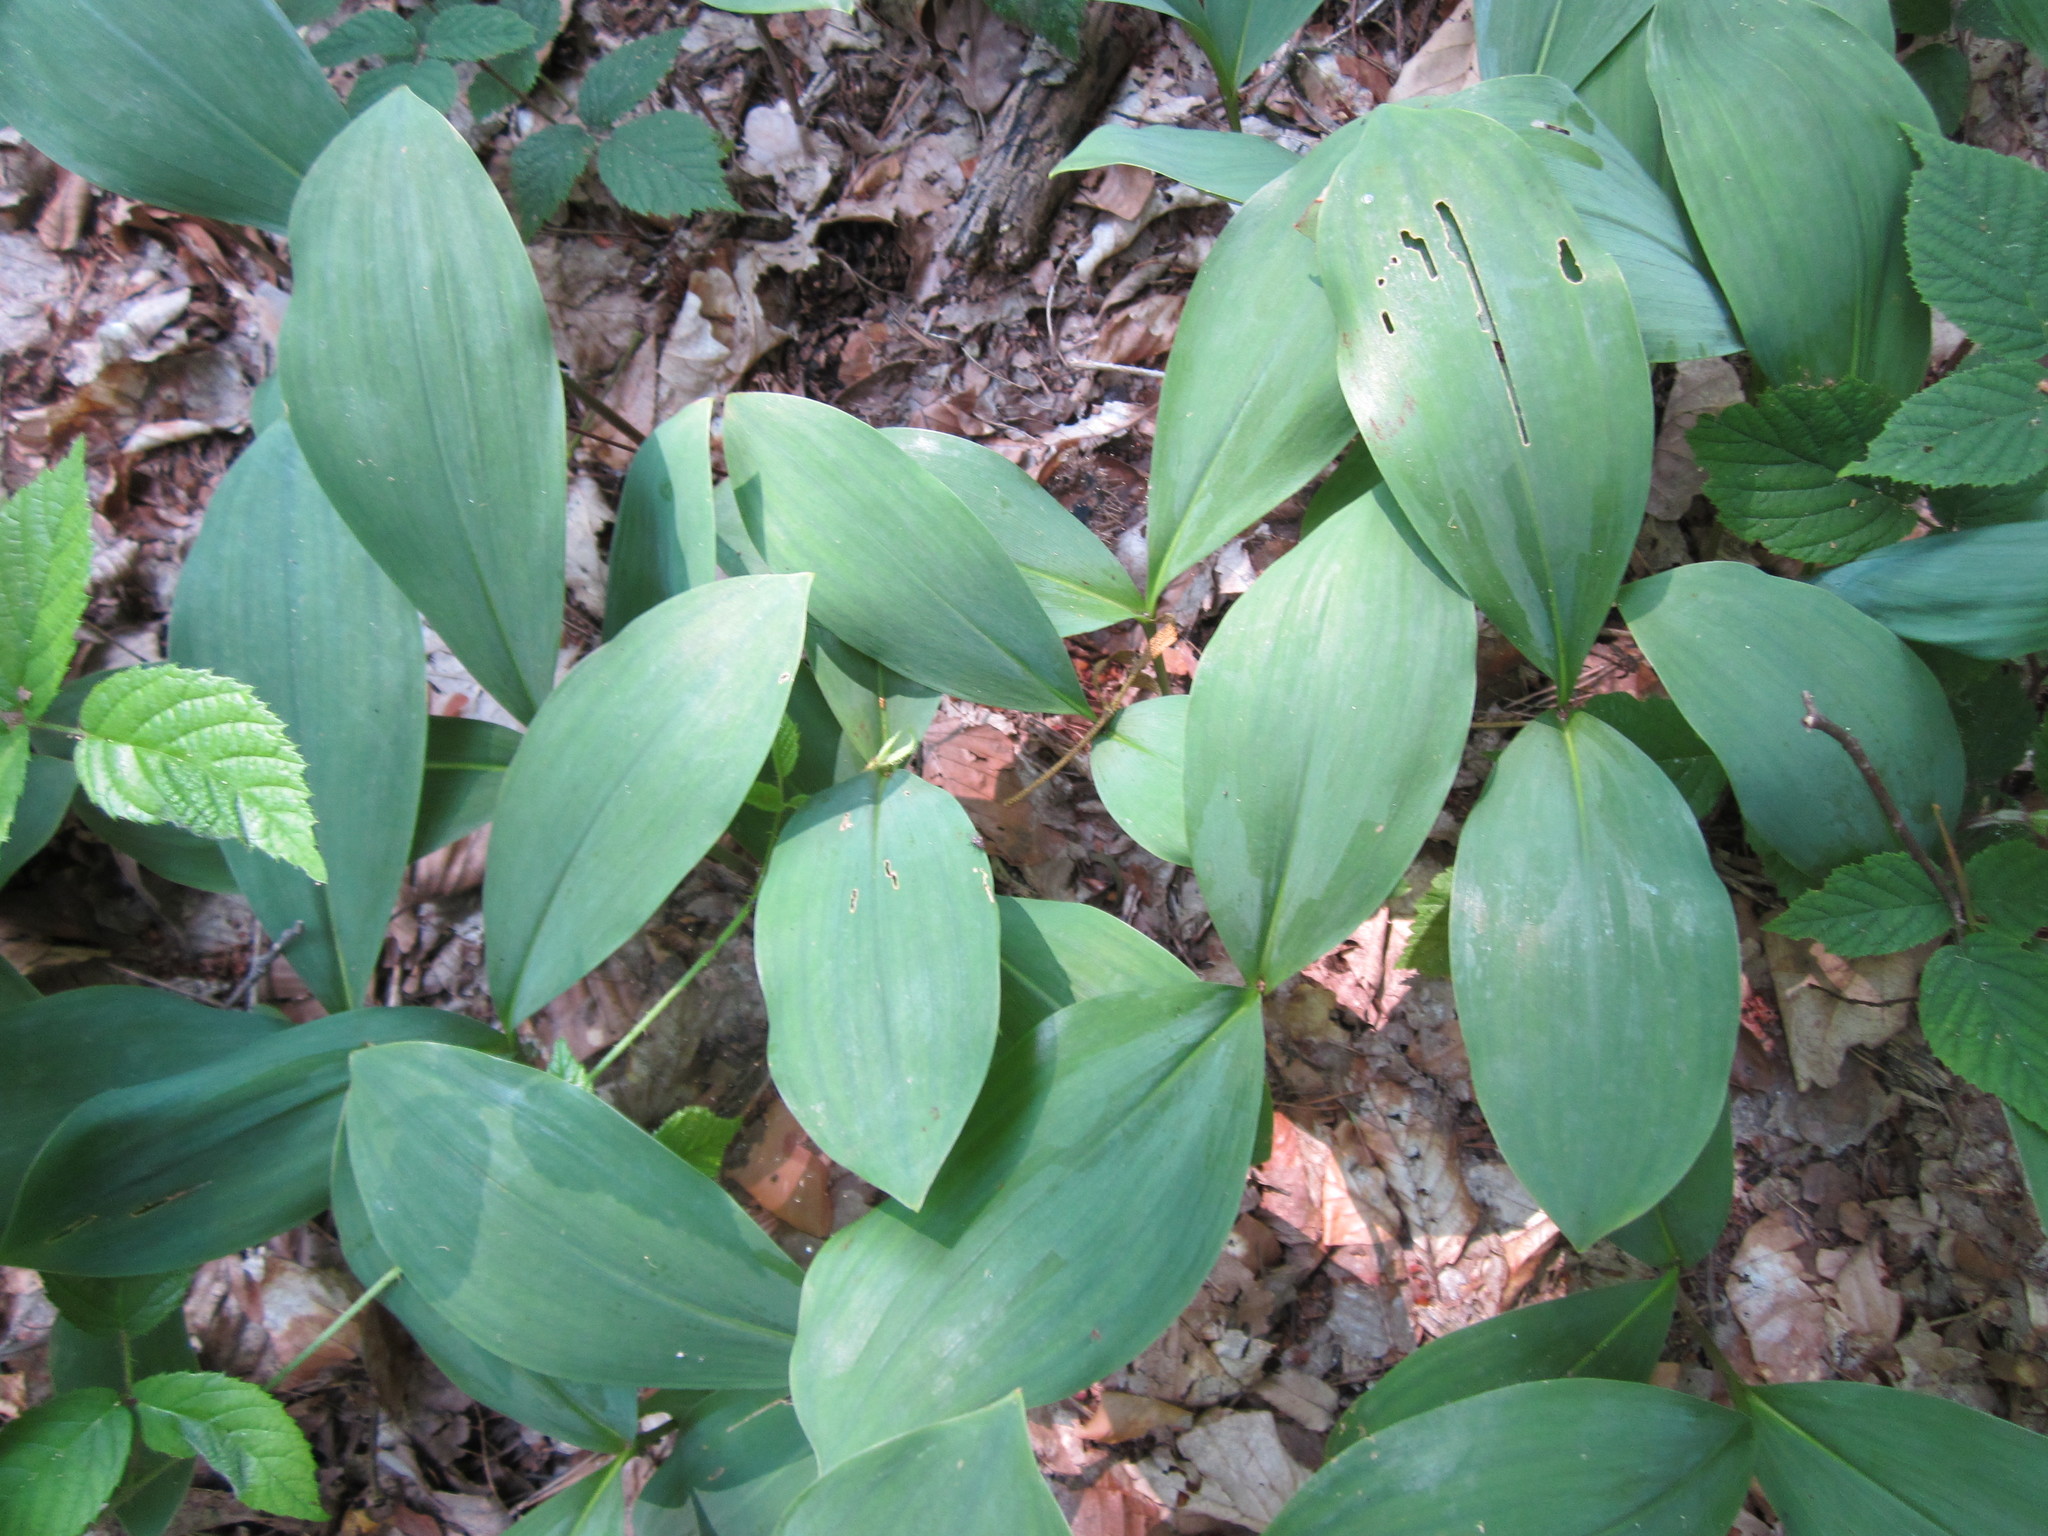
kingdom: Plantae
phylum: Tracheophyta
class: Liliopsida
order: Asparagales
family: Asparagaceae
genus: Convallaria
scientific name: Convallaria majalis
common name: Lily-of-the-valley
